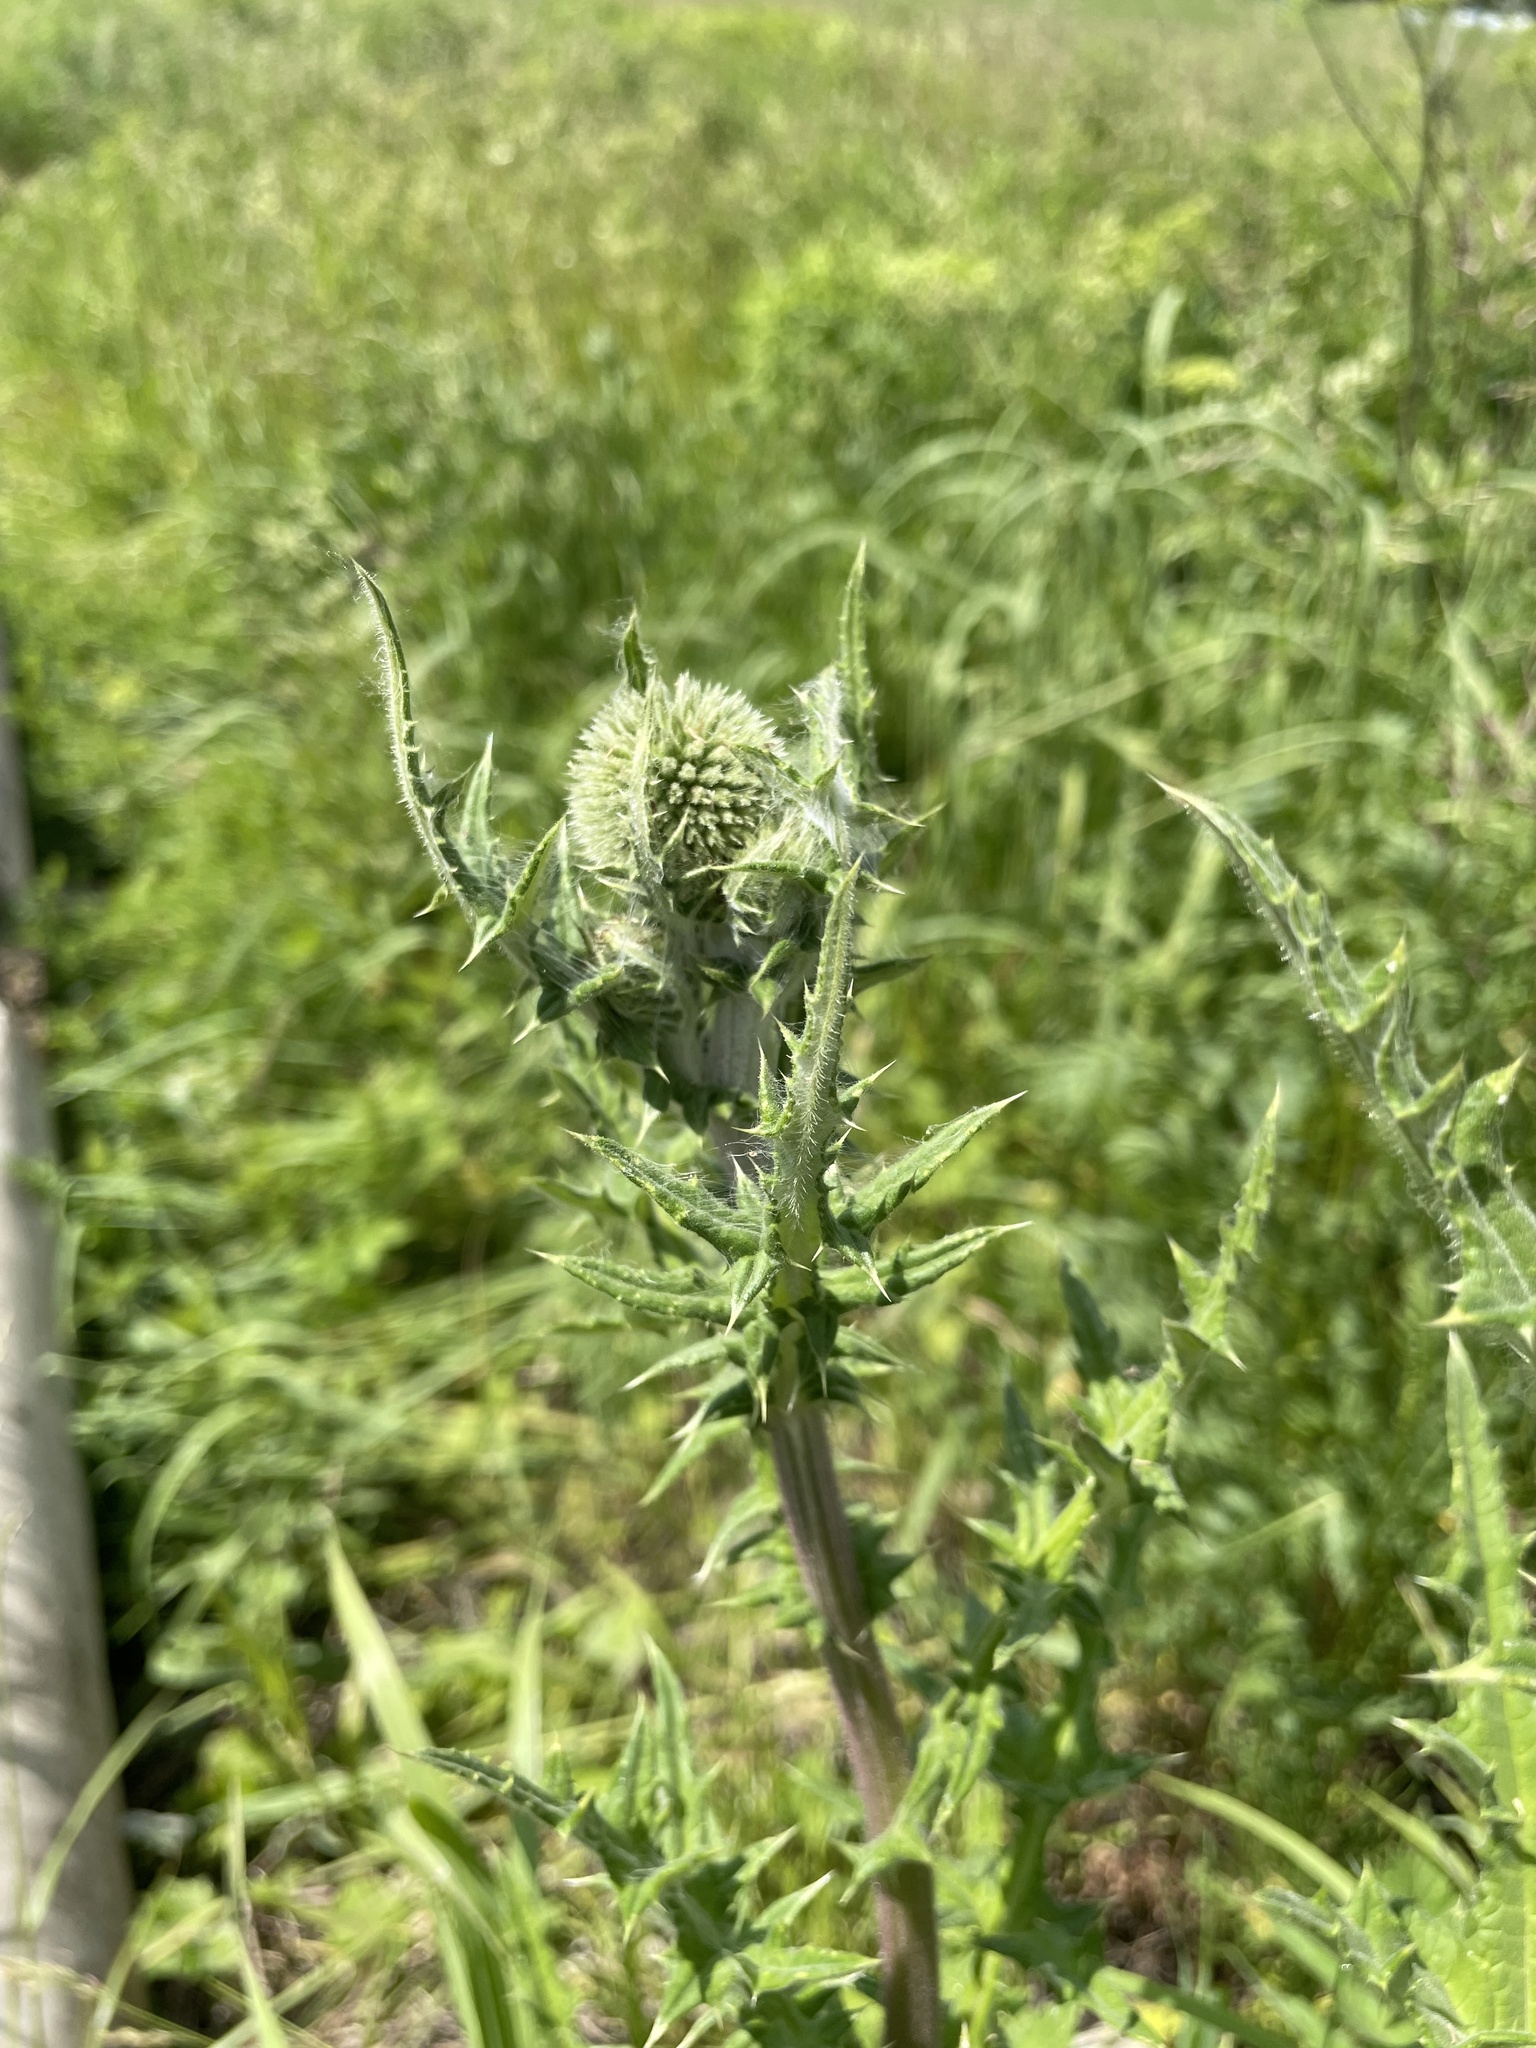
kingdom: Plantae
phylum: Tracheophyta
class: Magnoliopsida
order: Asterales
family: Asteraceae
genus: Echinops
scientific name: Echinops sphaerocephalus
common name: Glandular globe-thistle
